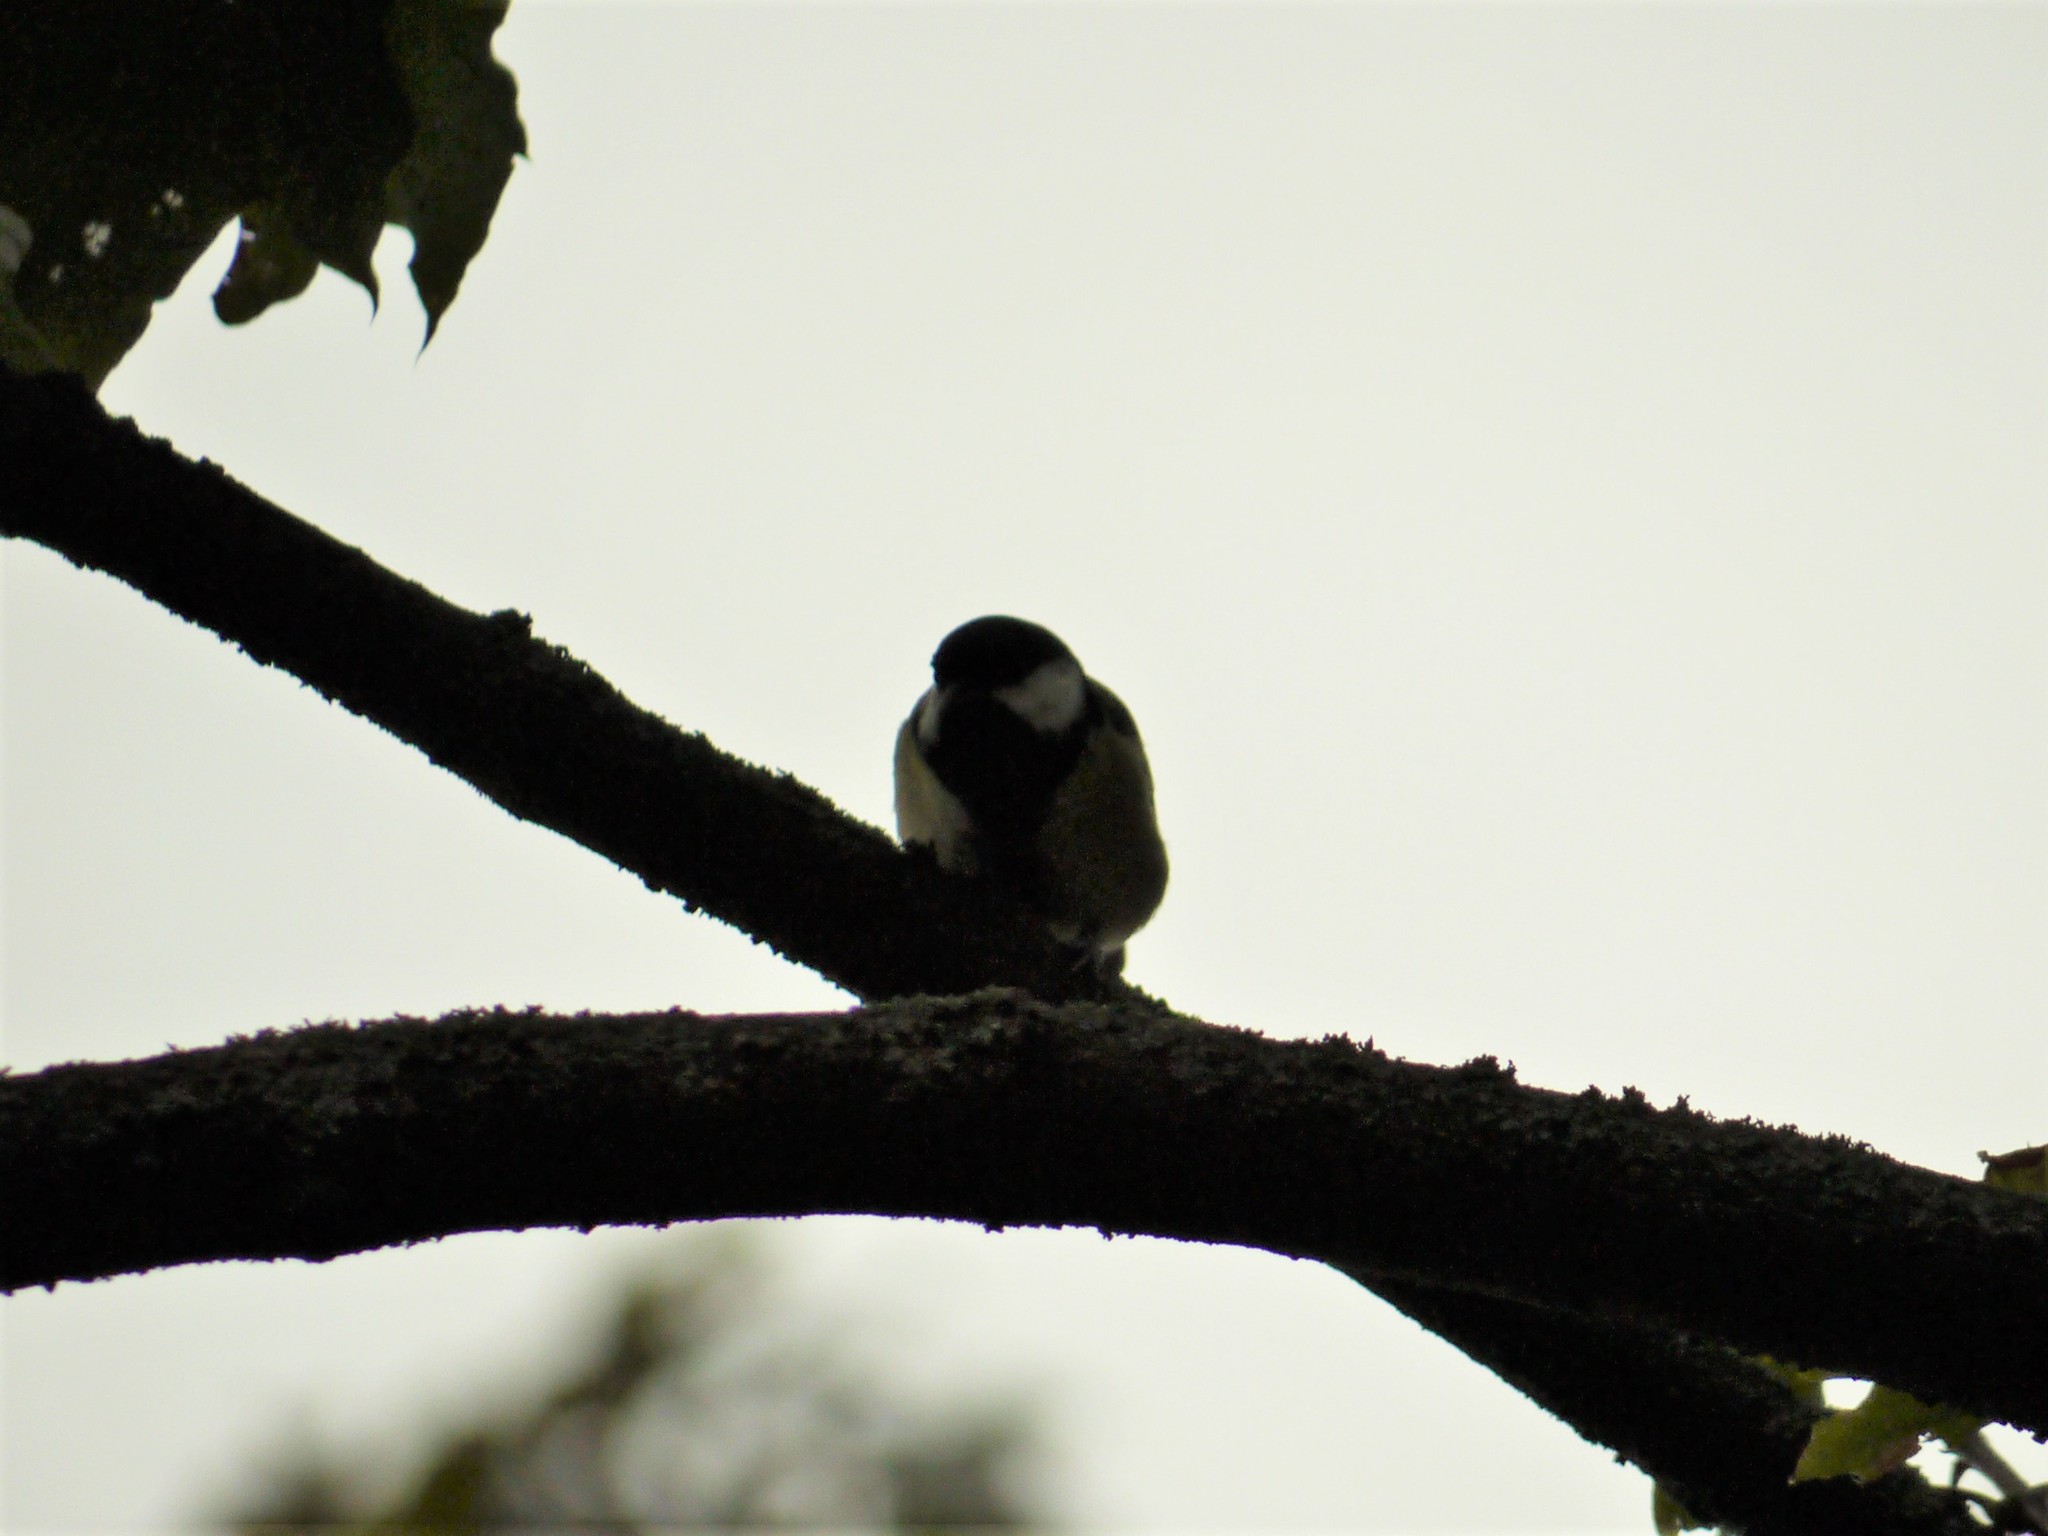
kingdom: Animalia
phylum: Chordata
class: Aves
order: Passeriformes
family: Paridae
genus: Parus
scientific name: Parus major
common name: Great tit
